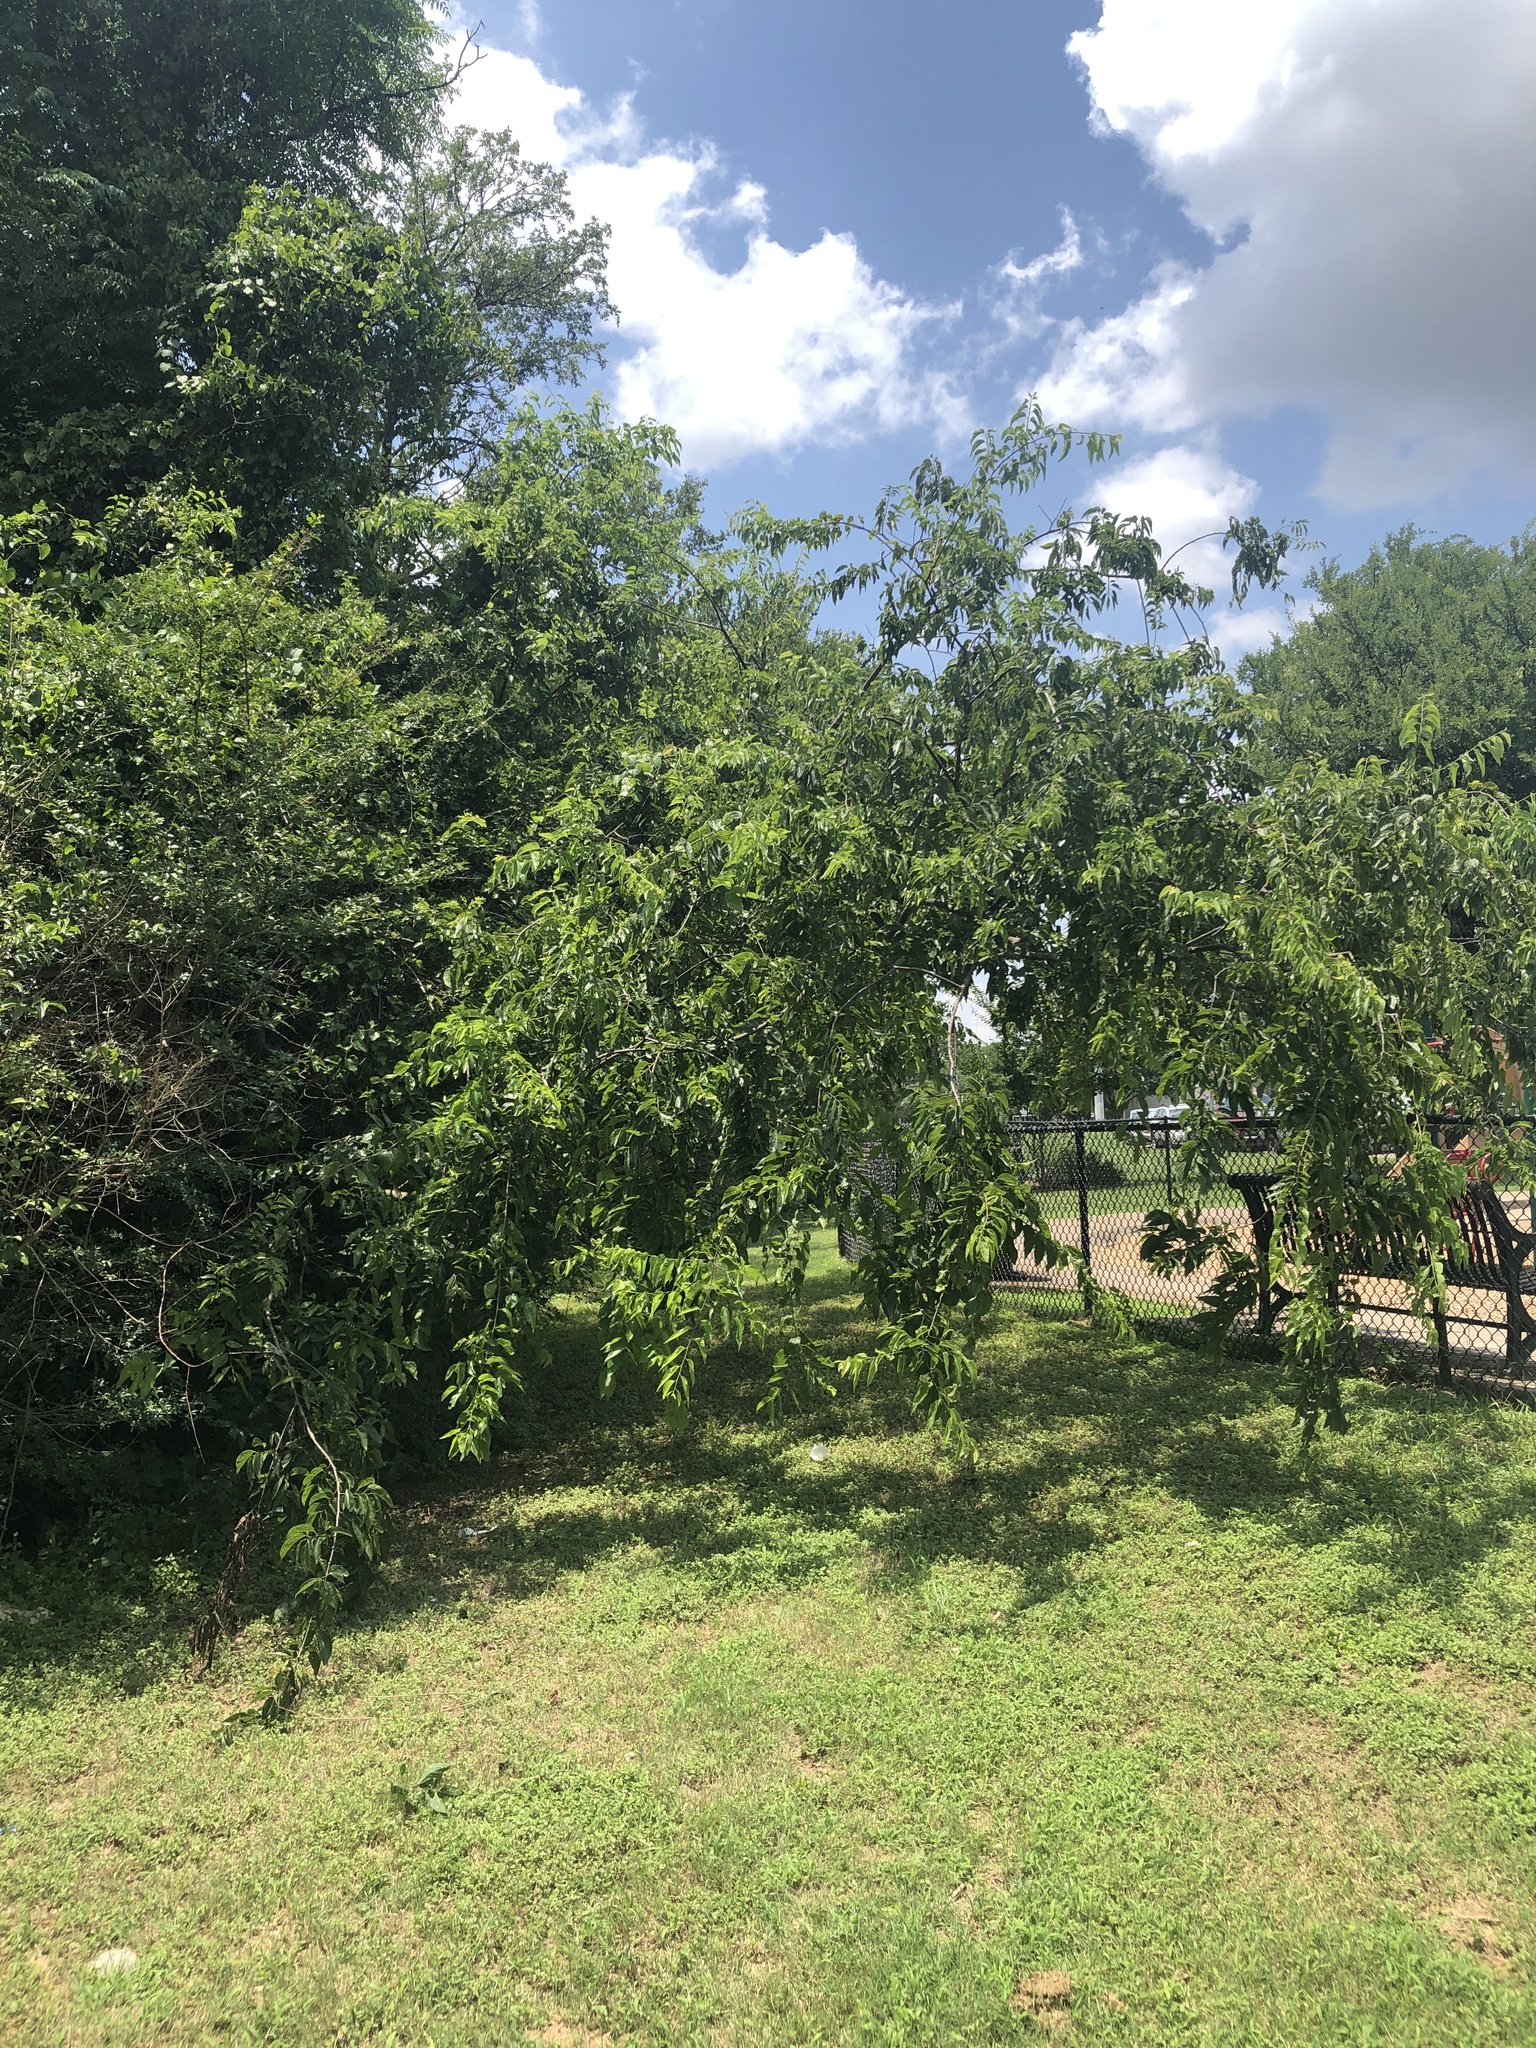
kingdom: Plantae
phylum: Tracheophyta
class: Magnoliopsida
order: Rosales
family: Cannabaceae
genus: Celtis
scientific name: Celtis laevigata
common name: Sugarberry
